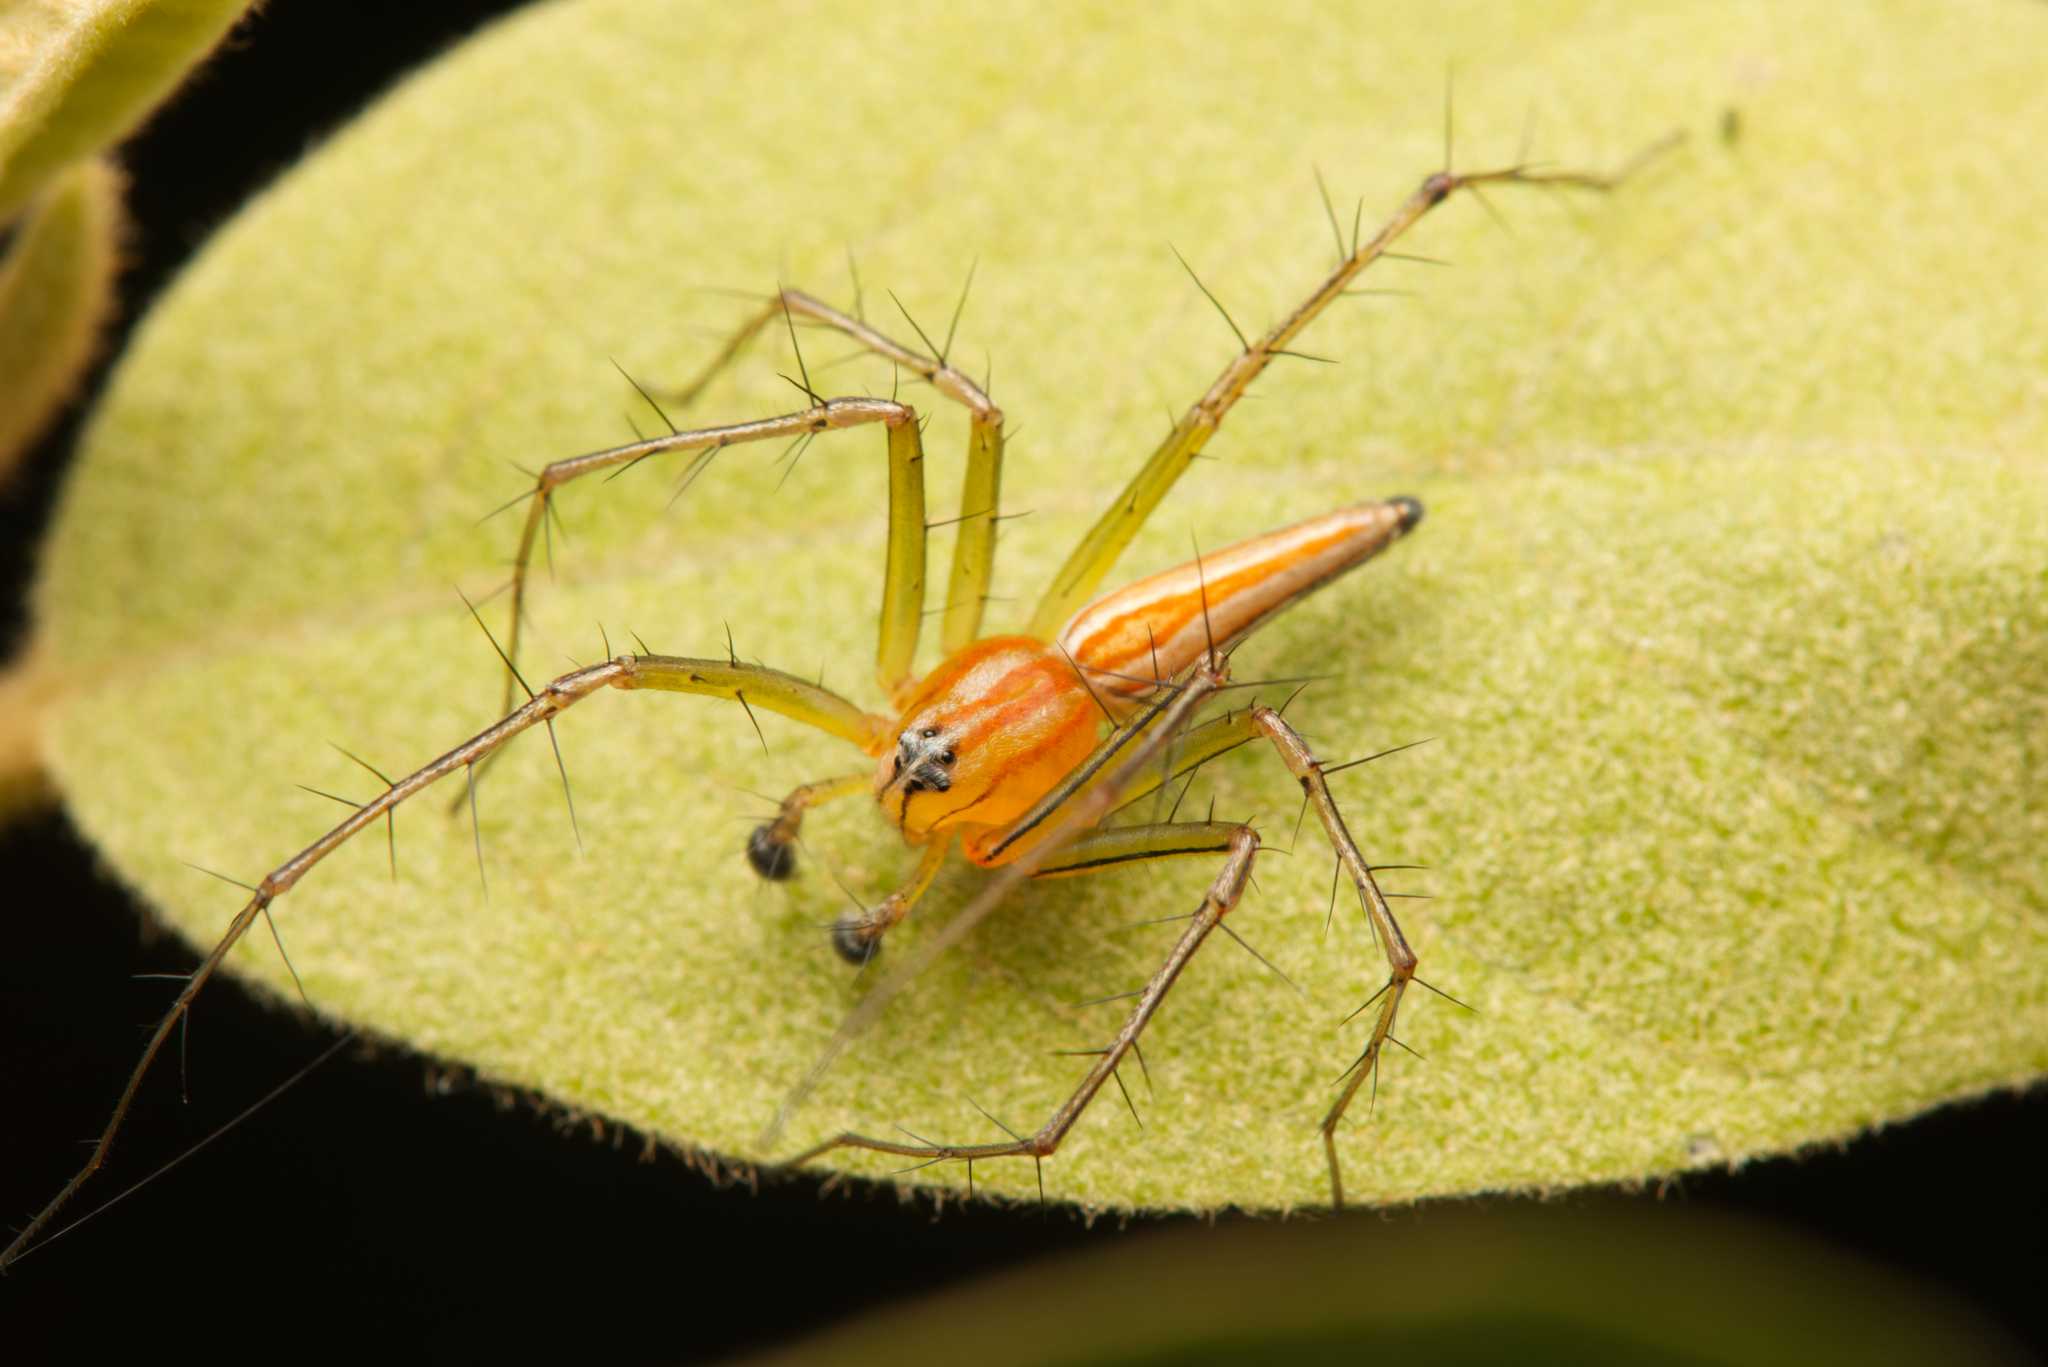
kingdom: Animalia
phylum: Arthropoda
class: Arachnida
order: Araneae
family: Oxyopidae
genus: Oxyopes
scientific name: Oxyopes macilentus
